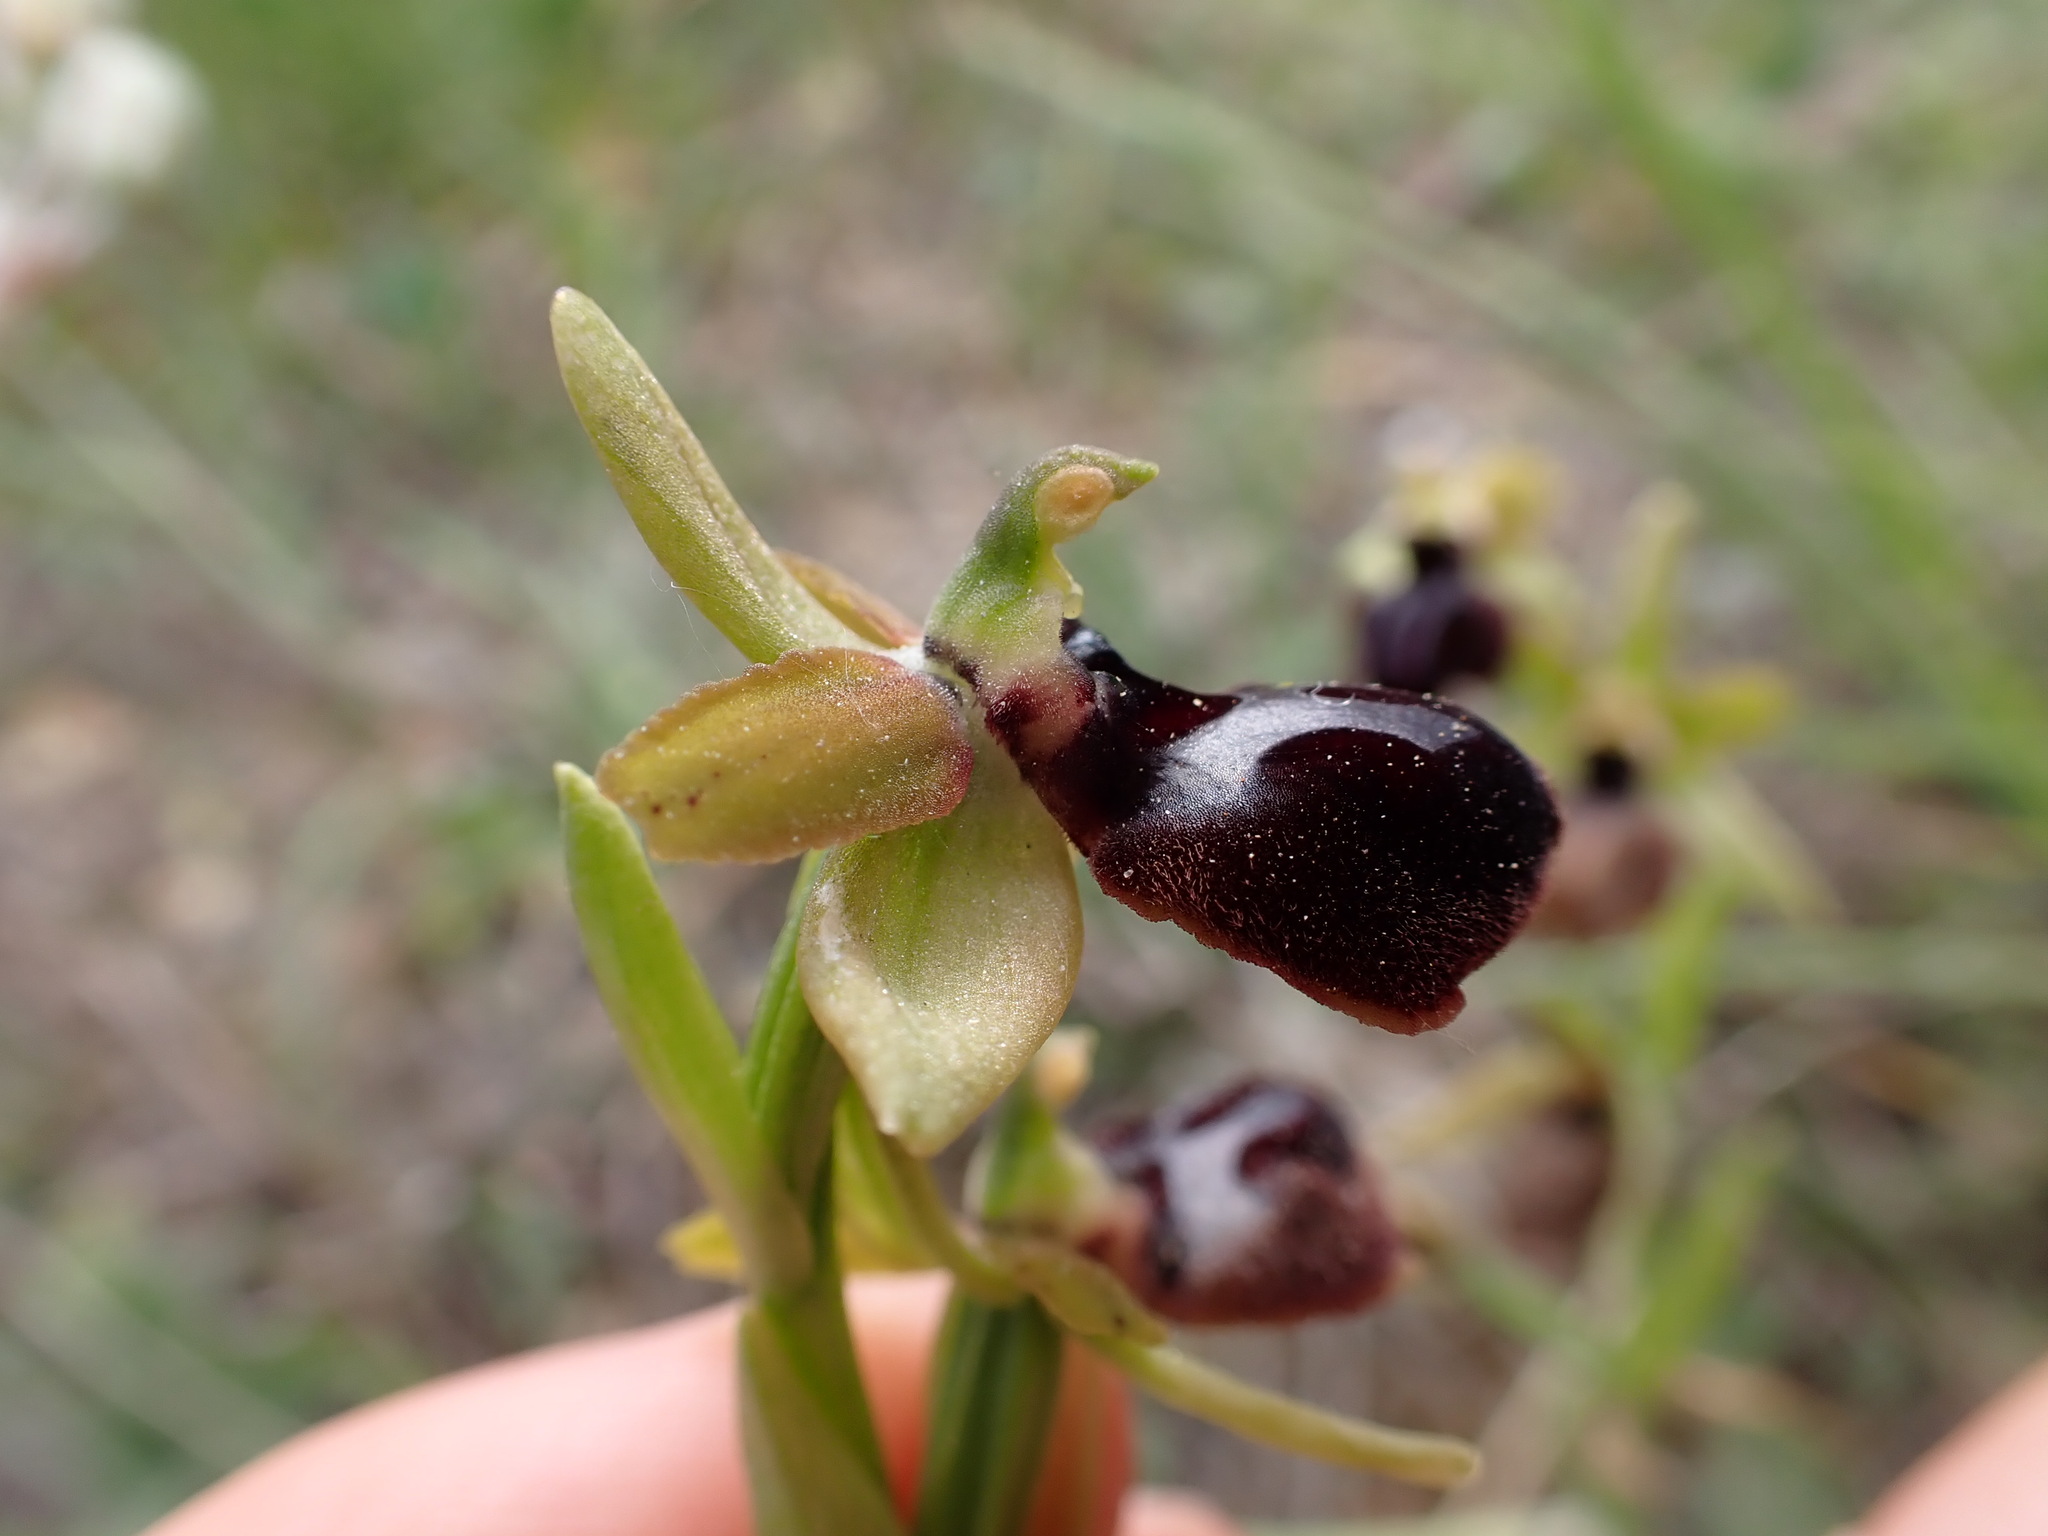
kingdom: Plantae
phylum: Tracheophyta
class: Liliopsida
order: Asparagales
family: Orchidaceae
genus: Ophrys
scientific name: Ophrys sphegodes
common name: Early spider-orchid
